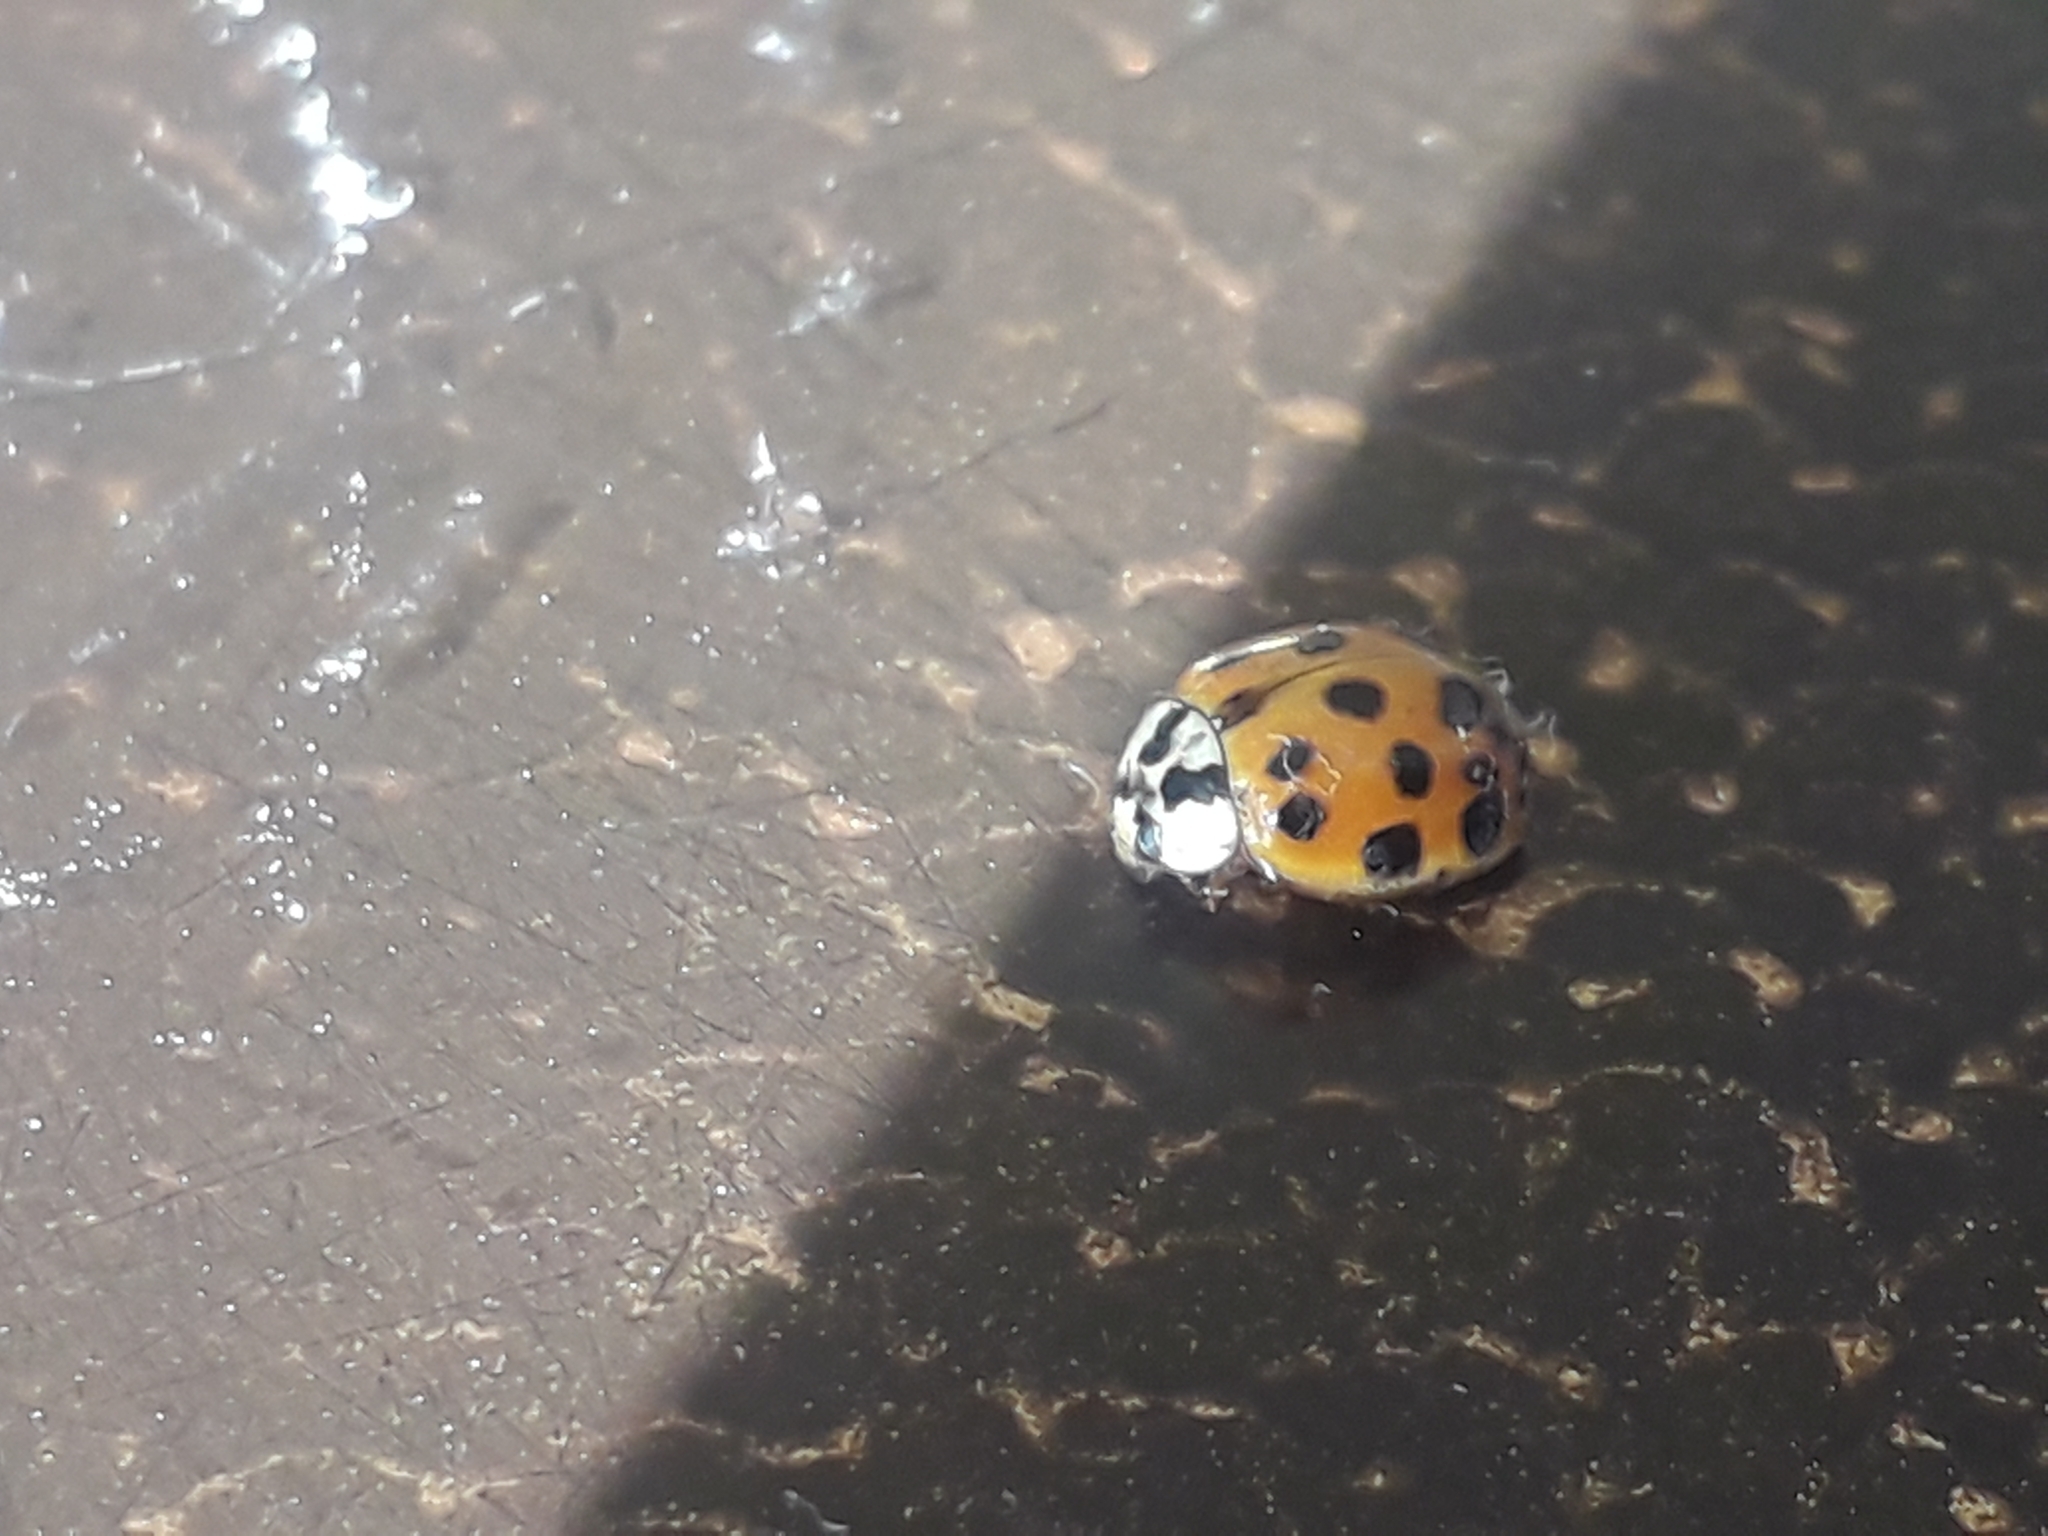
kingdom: Animalia
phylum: Arthropoda
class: Insecta
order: Coleoptera
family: Coccinellidae
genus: Harmonia
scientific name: Harmonia axyridis
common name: Harlequin ladybird
